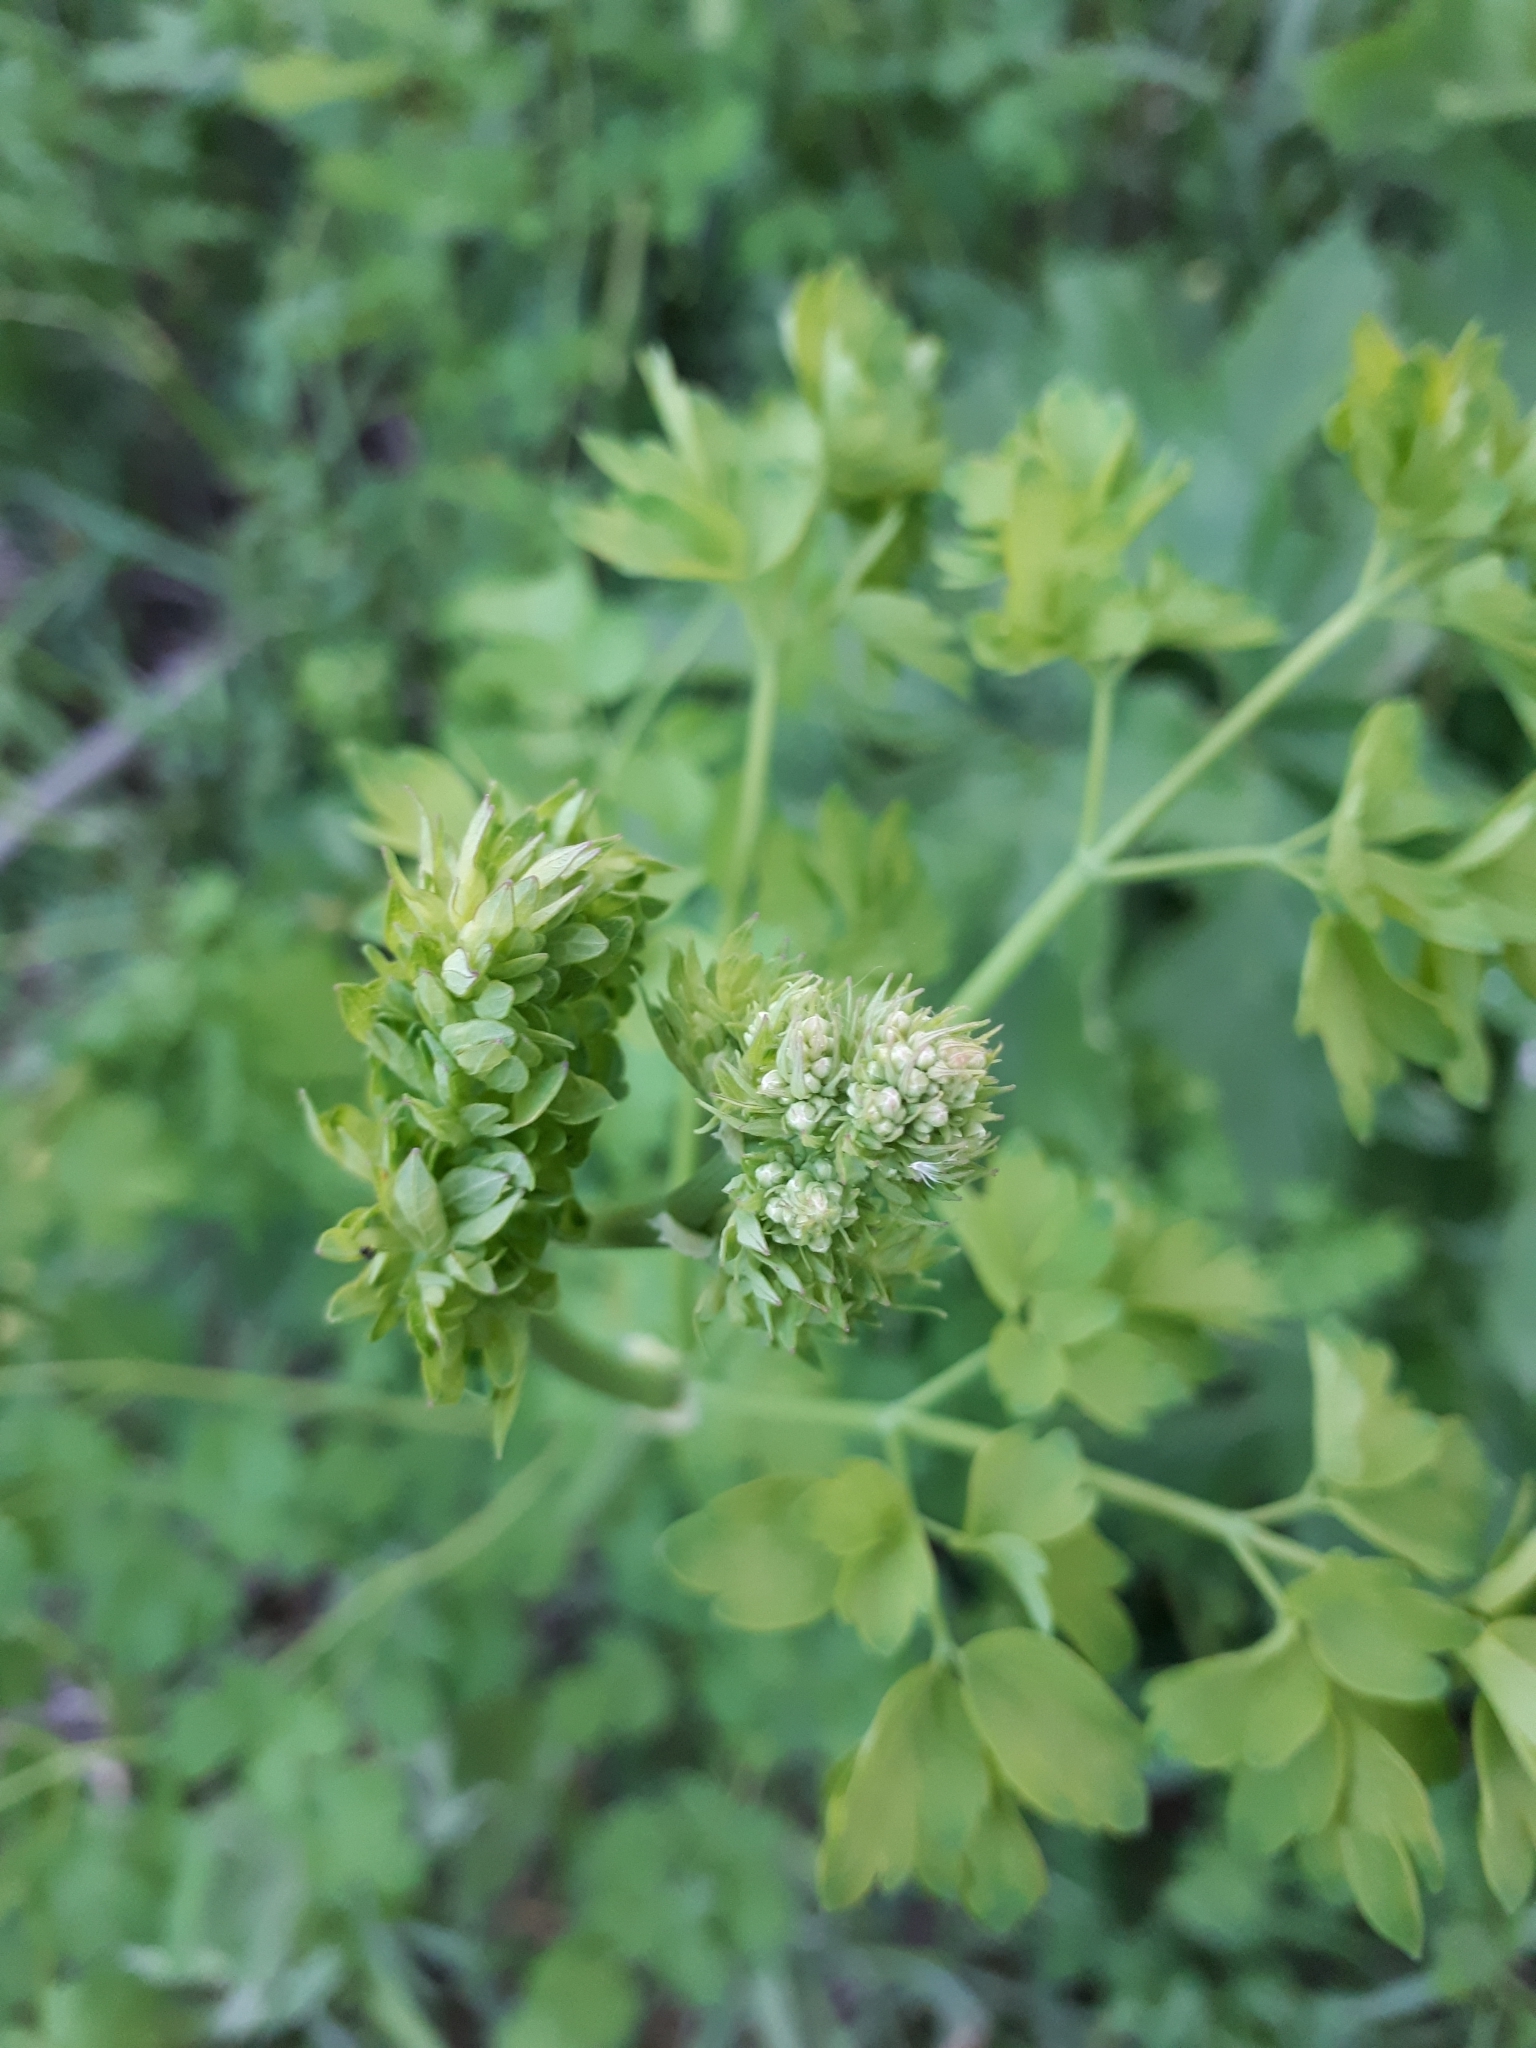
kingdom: Plantae
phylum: Tracheophyta
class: Magnoliopsida
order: Ranunculales
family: Ranunculaceae
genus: Thalictrum
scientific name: Thalictrum minus
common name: Lesser meadow-rue
